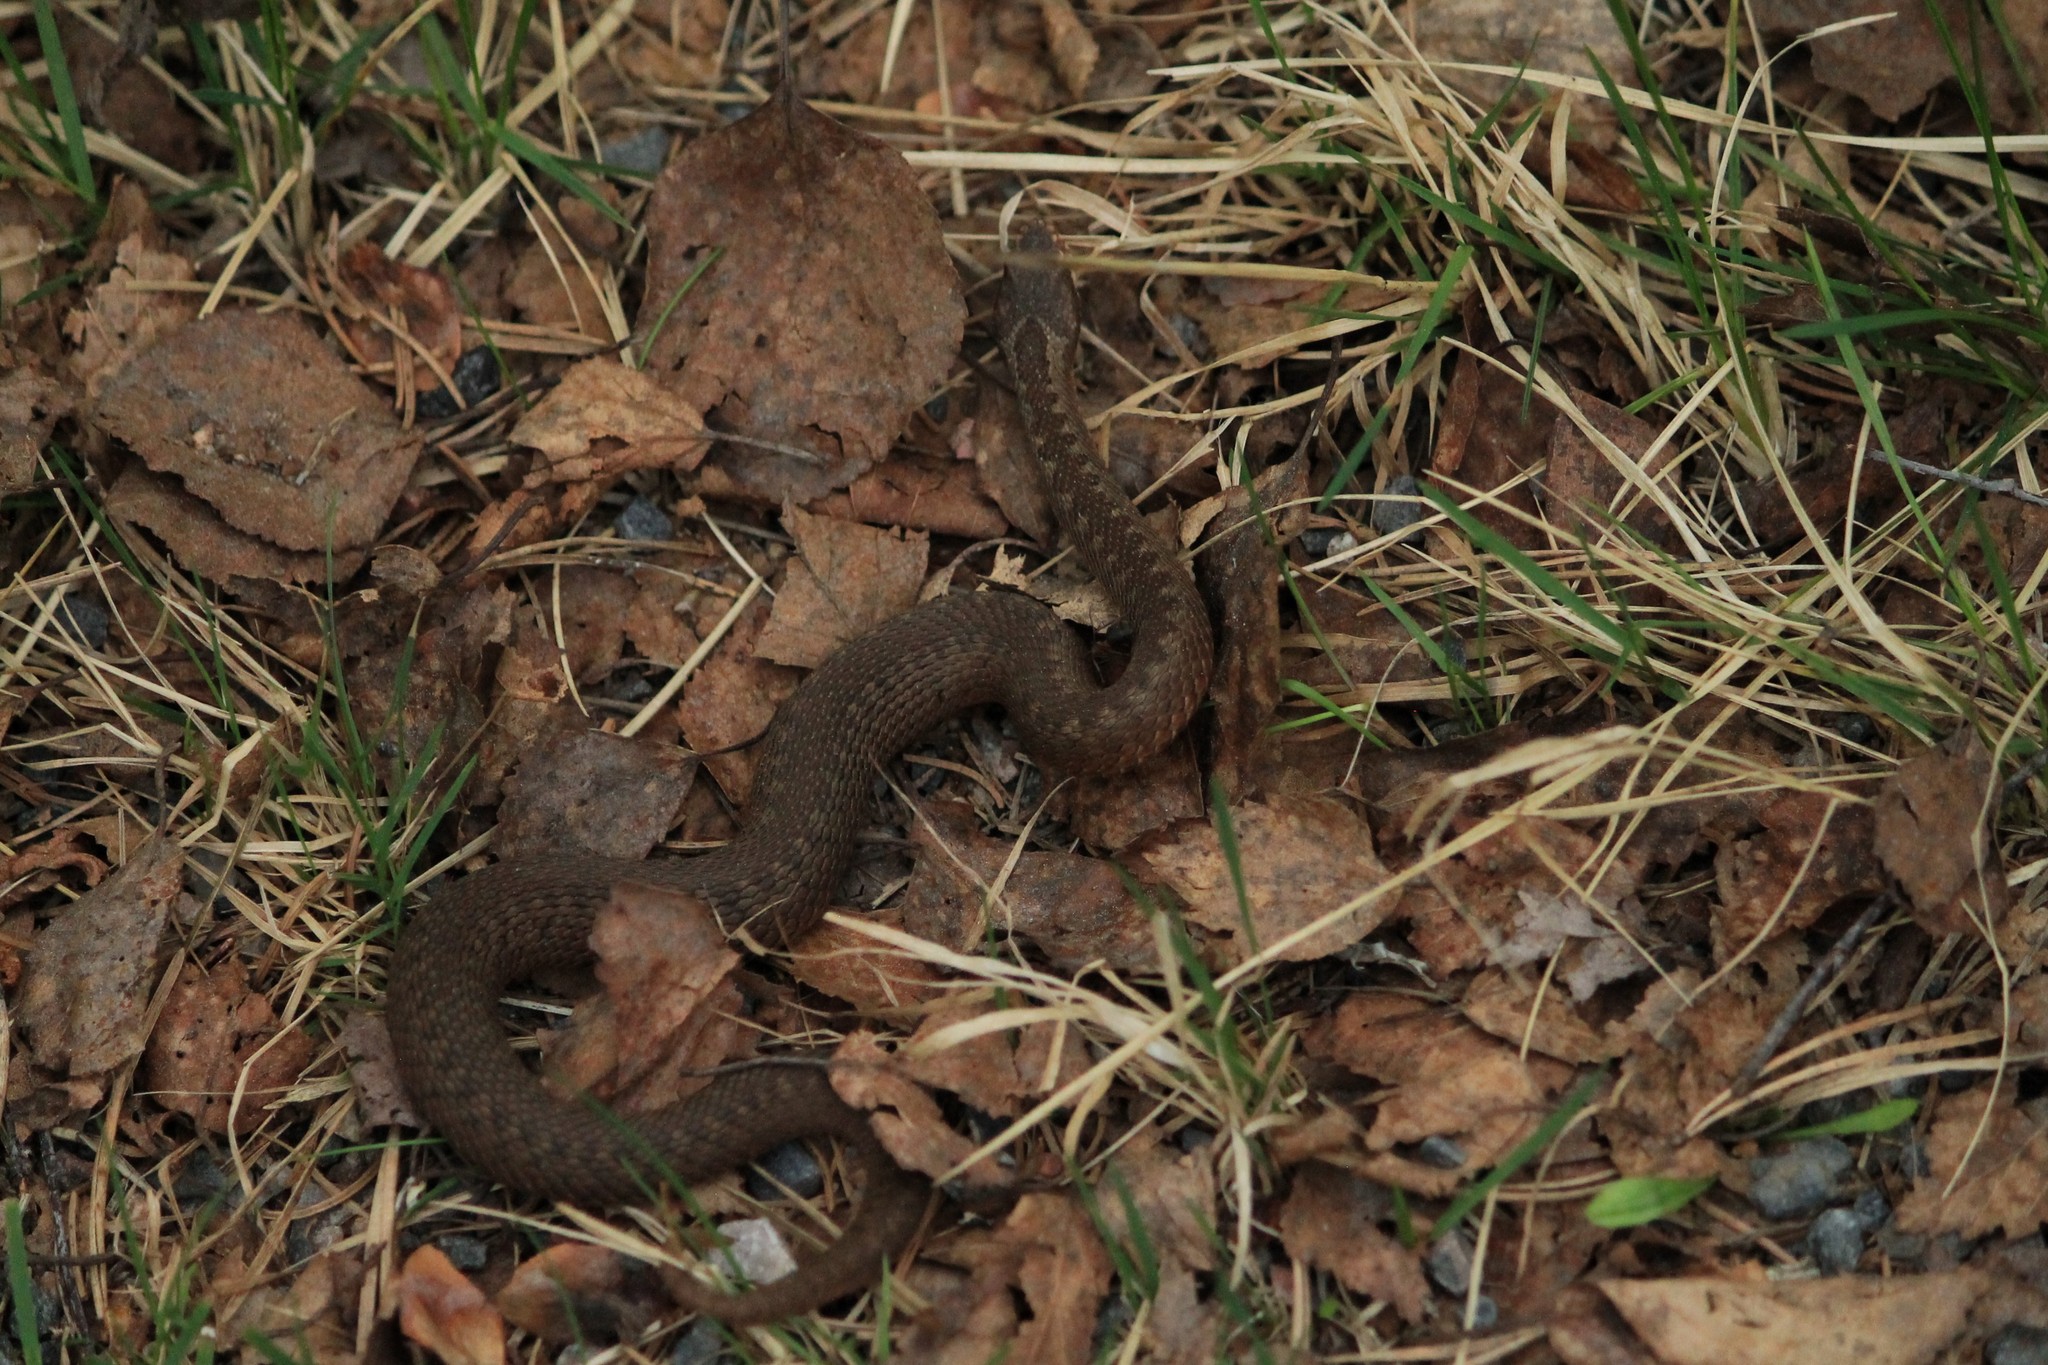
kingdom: Animalia
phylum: Chordata
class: Squamata
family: Viperidae
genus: Vipera
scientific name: Vipera berus
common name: Adder
